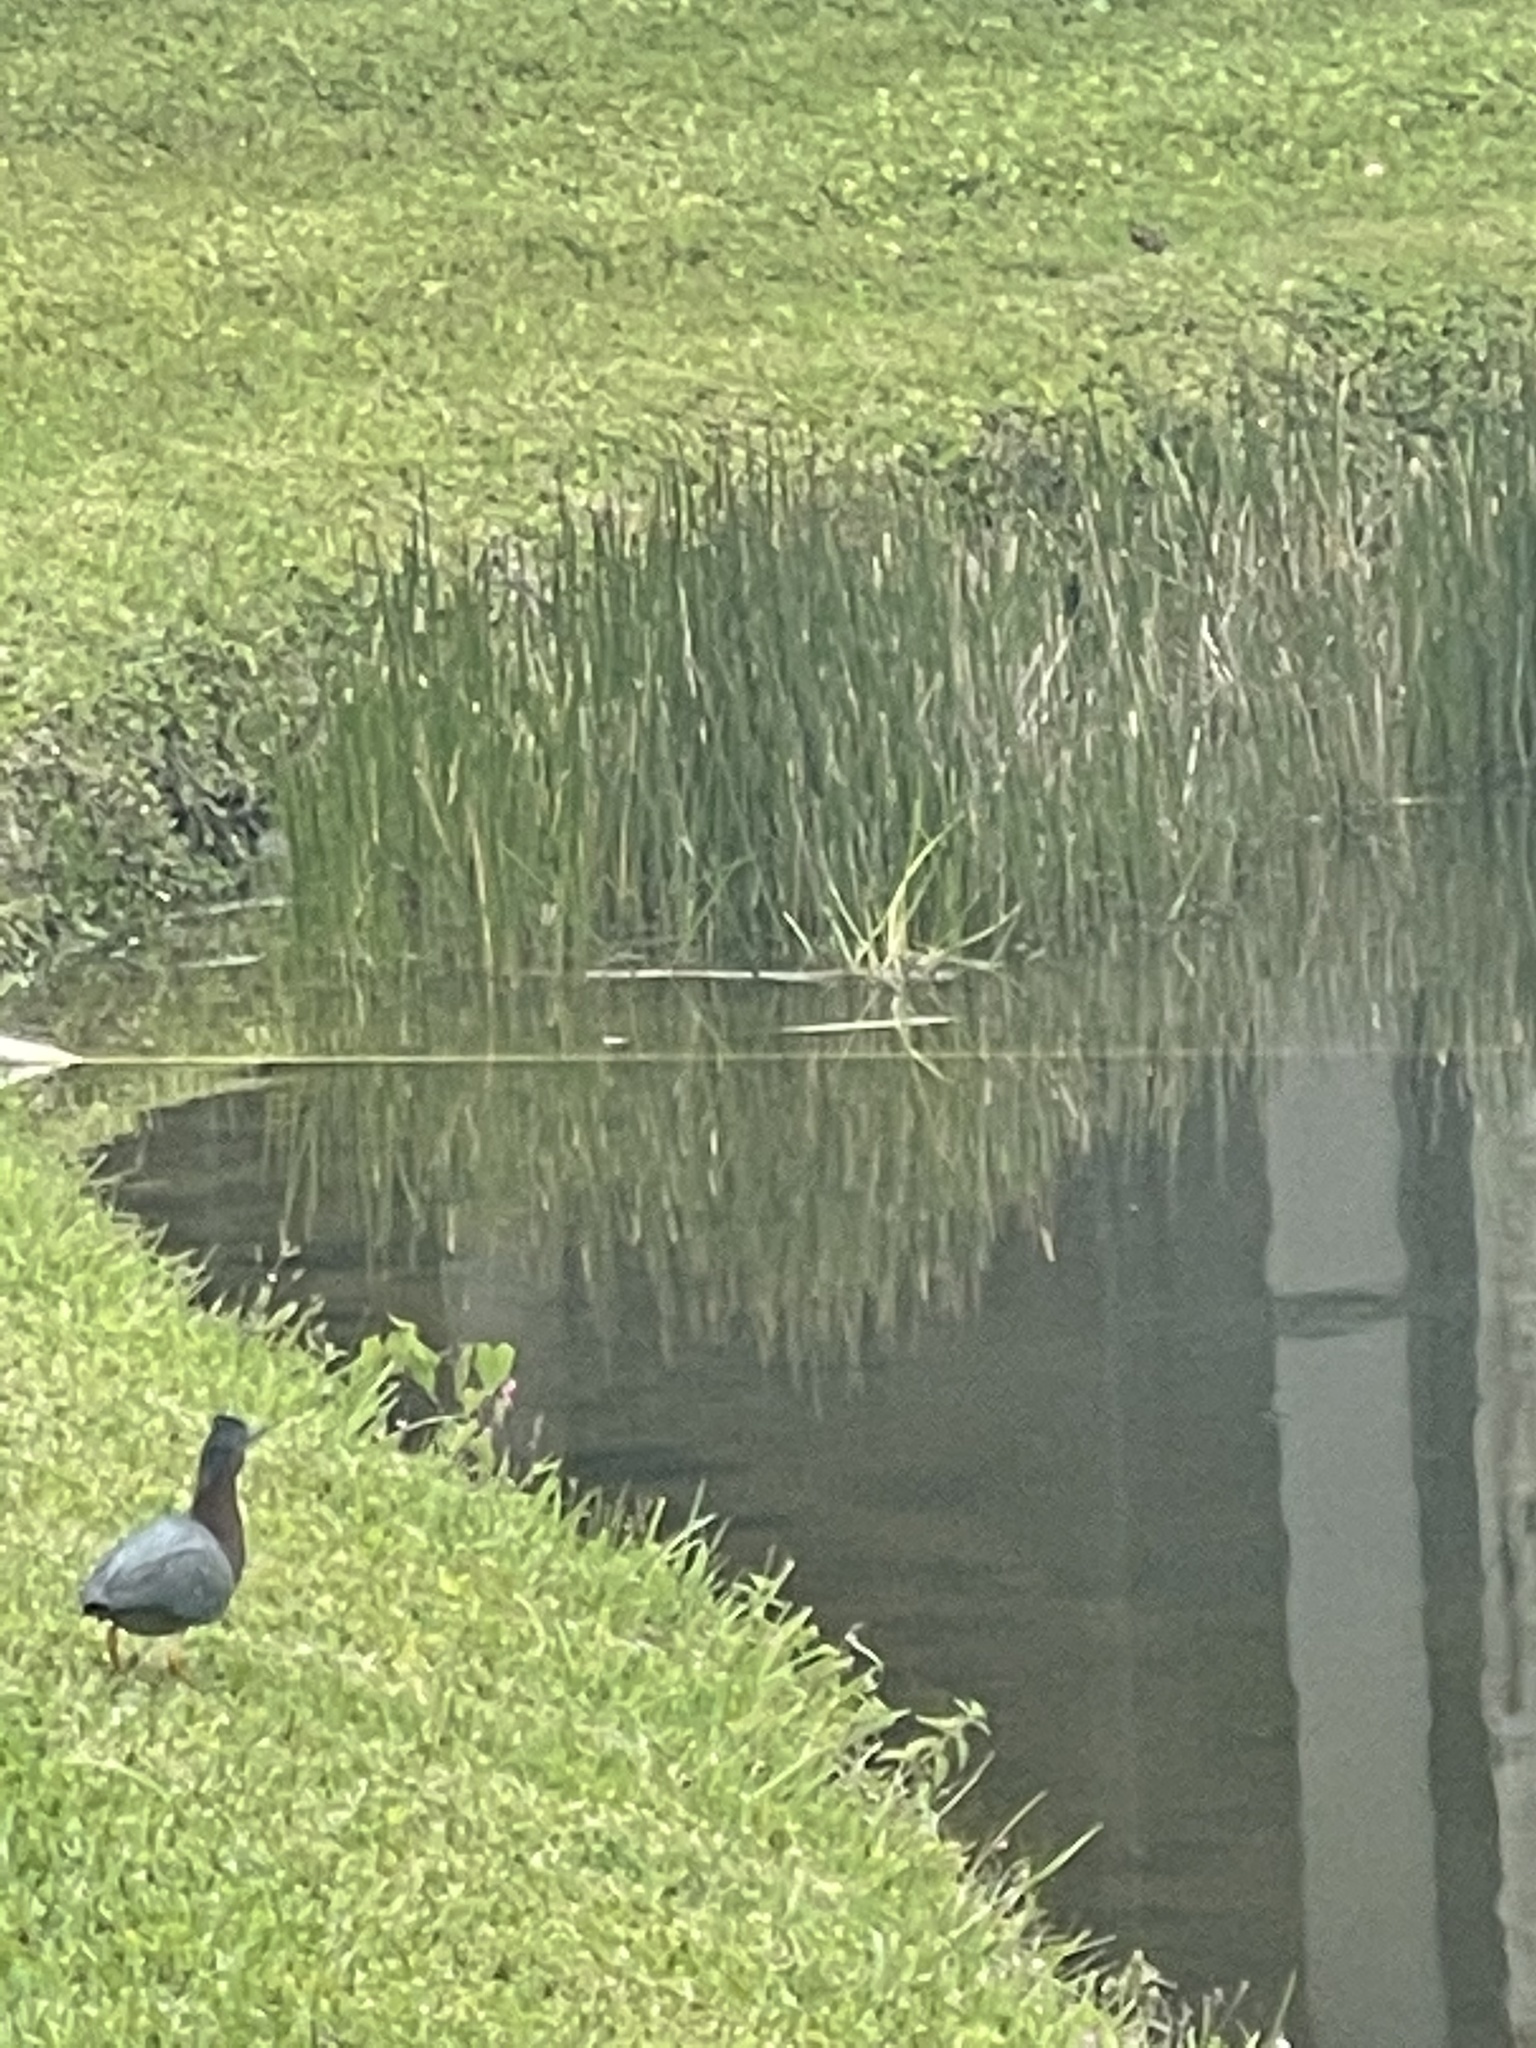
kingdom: Animalia
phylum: Chordata
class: Aves
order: Pelecaniformes
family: Ardeidae
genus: Butorides
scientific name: Butorides virescens
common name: Green heron
